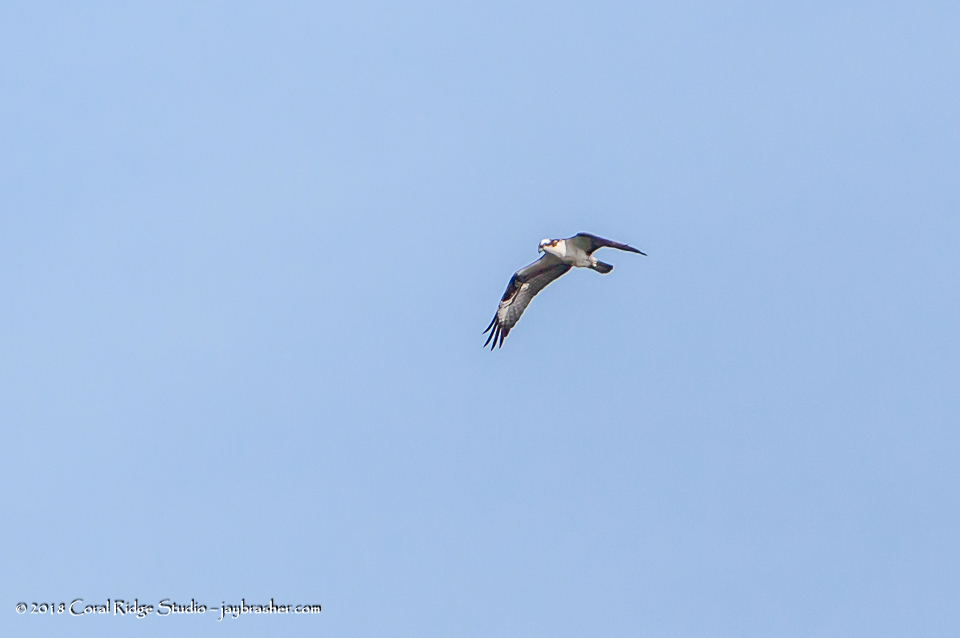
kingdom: Animalia
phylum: Chordata
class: Aves
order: Accipitriformes
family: Pandionidae
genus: Pandion
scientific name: Pandion haliaetus
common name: Osprey
